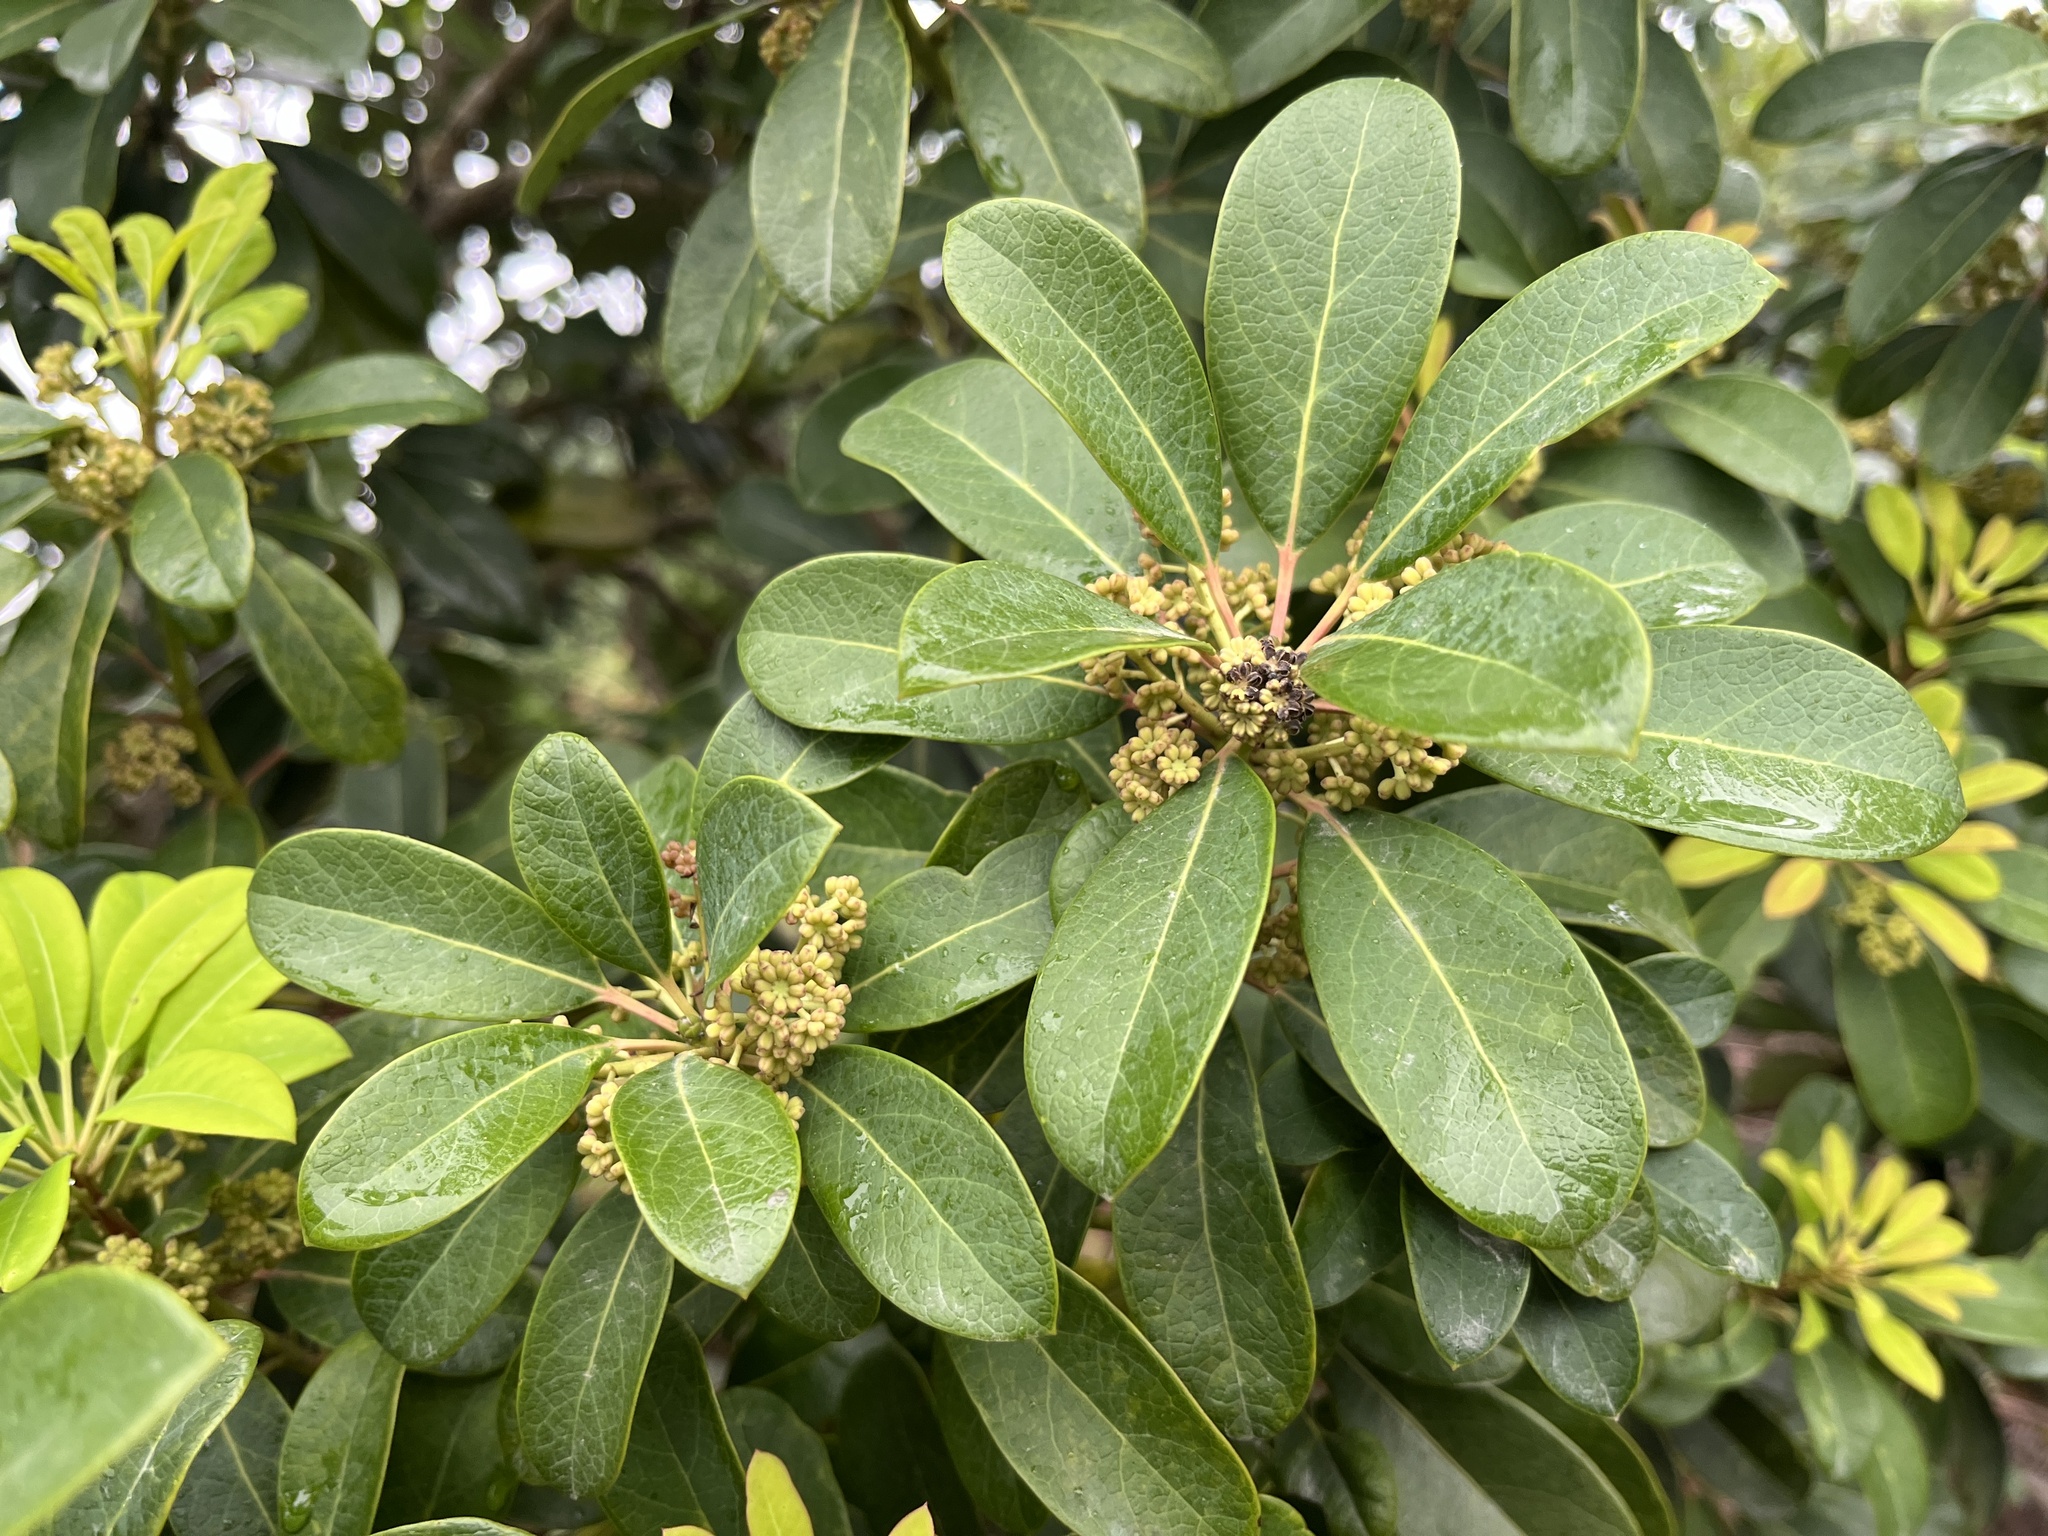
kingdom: Plantae
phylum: Tracheophyta
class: Magnoliopsida
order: Saxifragales
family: Daphniphyllaceae
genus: Daphniphyllum
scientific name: Daphniphyllum pentandrum
